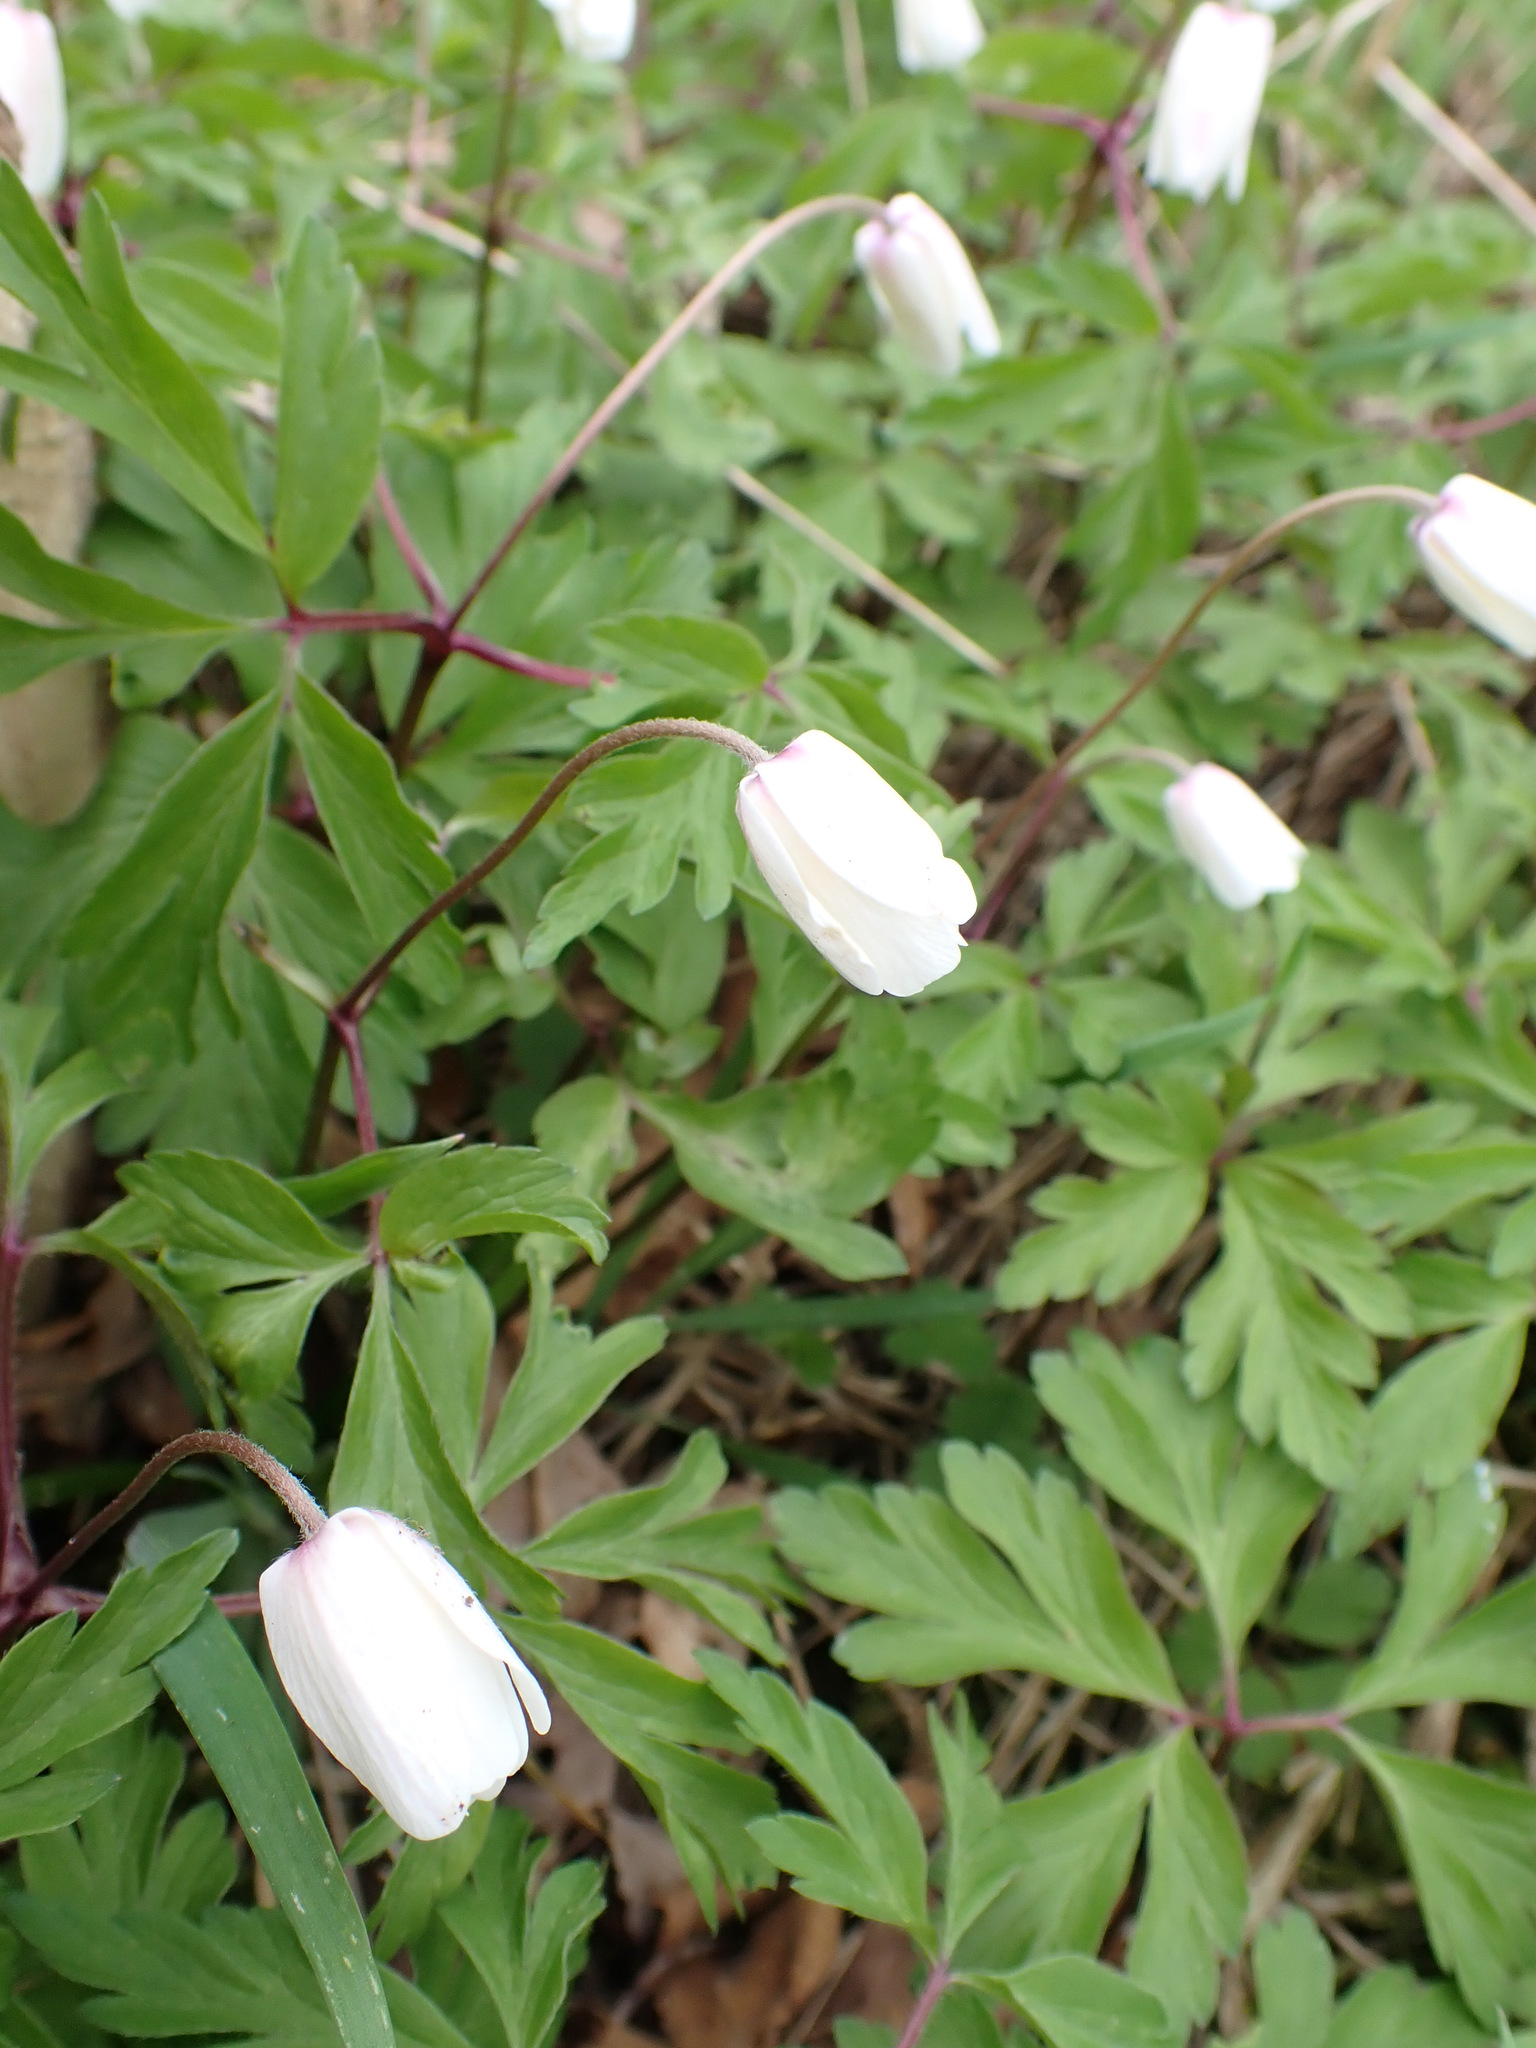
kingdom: Plantae
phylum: Tracheophyta
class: Magnoliopsida
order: Ranunculales
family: Ranunculaceae
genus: Anemone
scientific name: Anemone nemorosa
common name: Wood anemone
